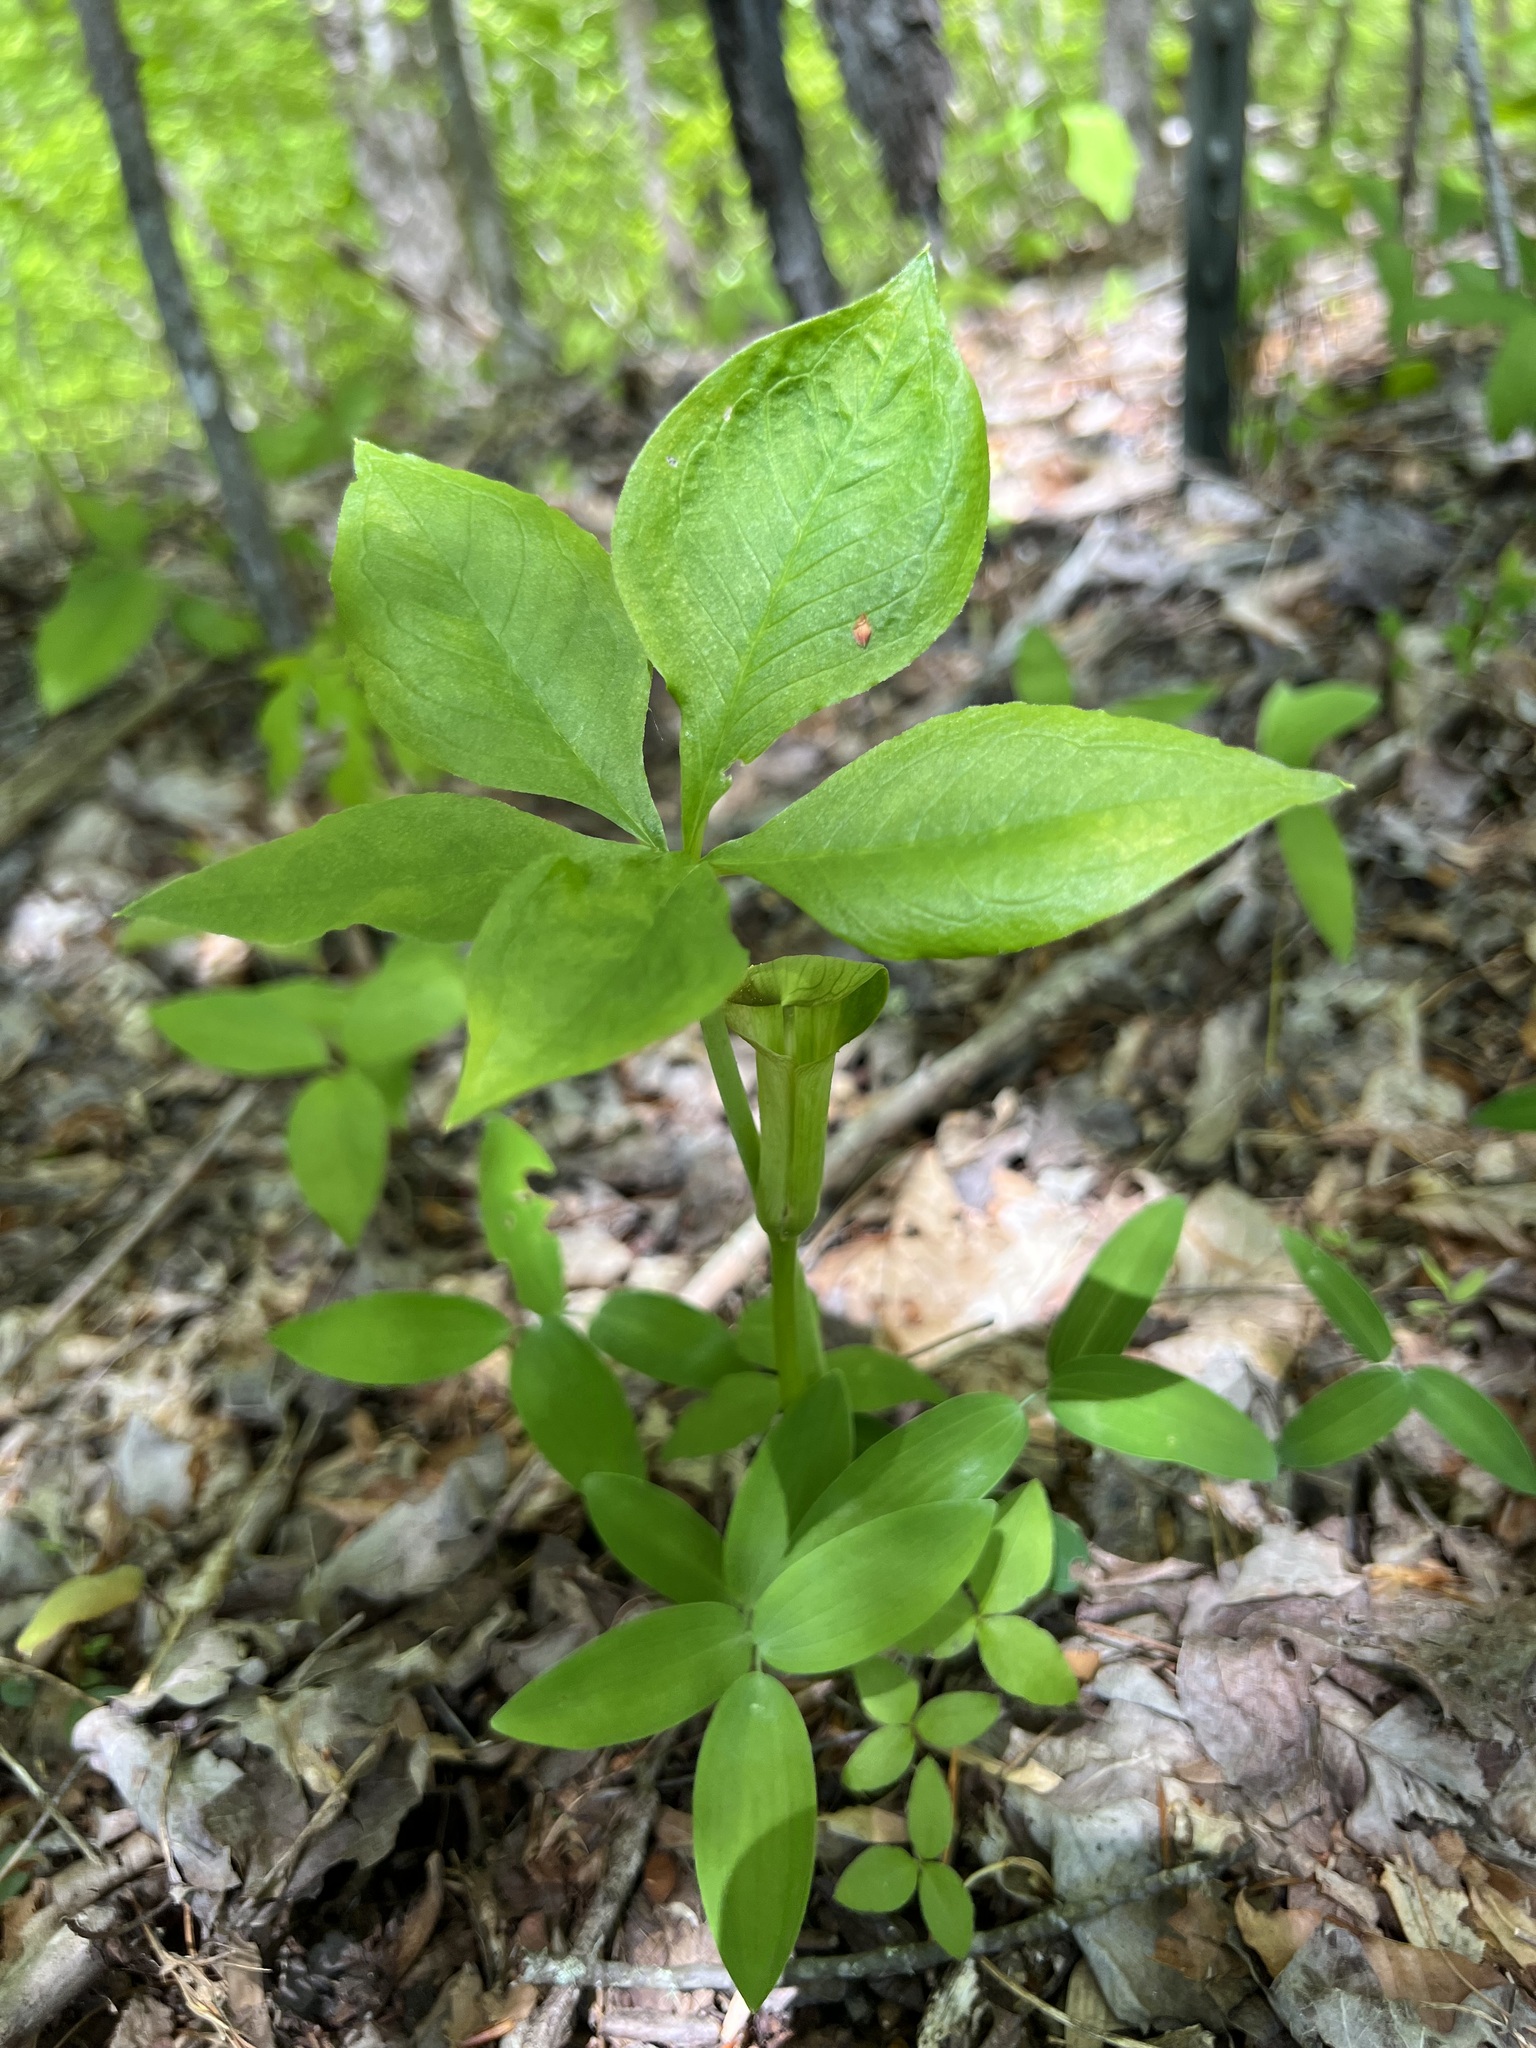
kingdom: Plantae
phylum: Tracheophyta
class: Liliopsida
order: Alismatales
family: Araceae
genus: Arisaema
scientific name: Arisaema quinatum
